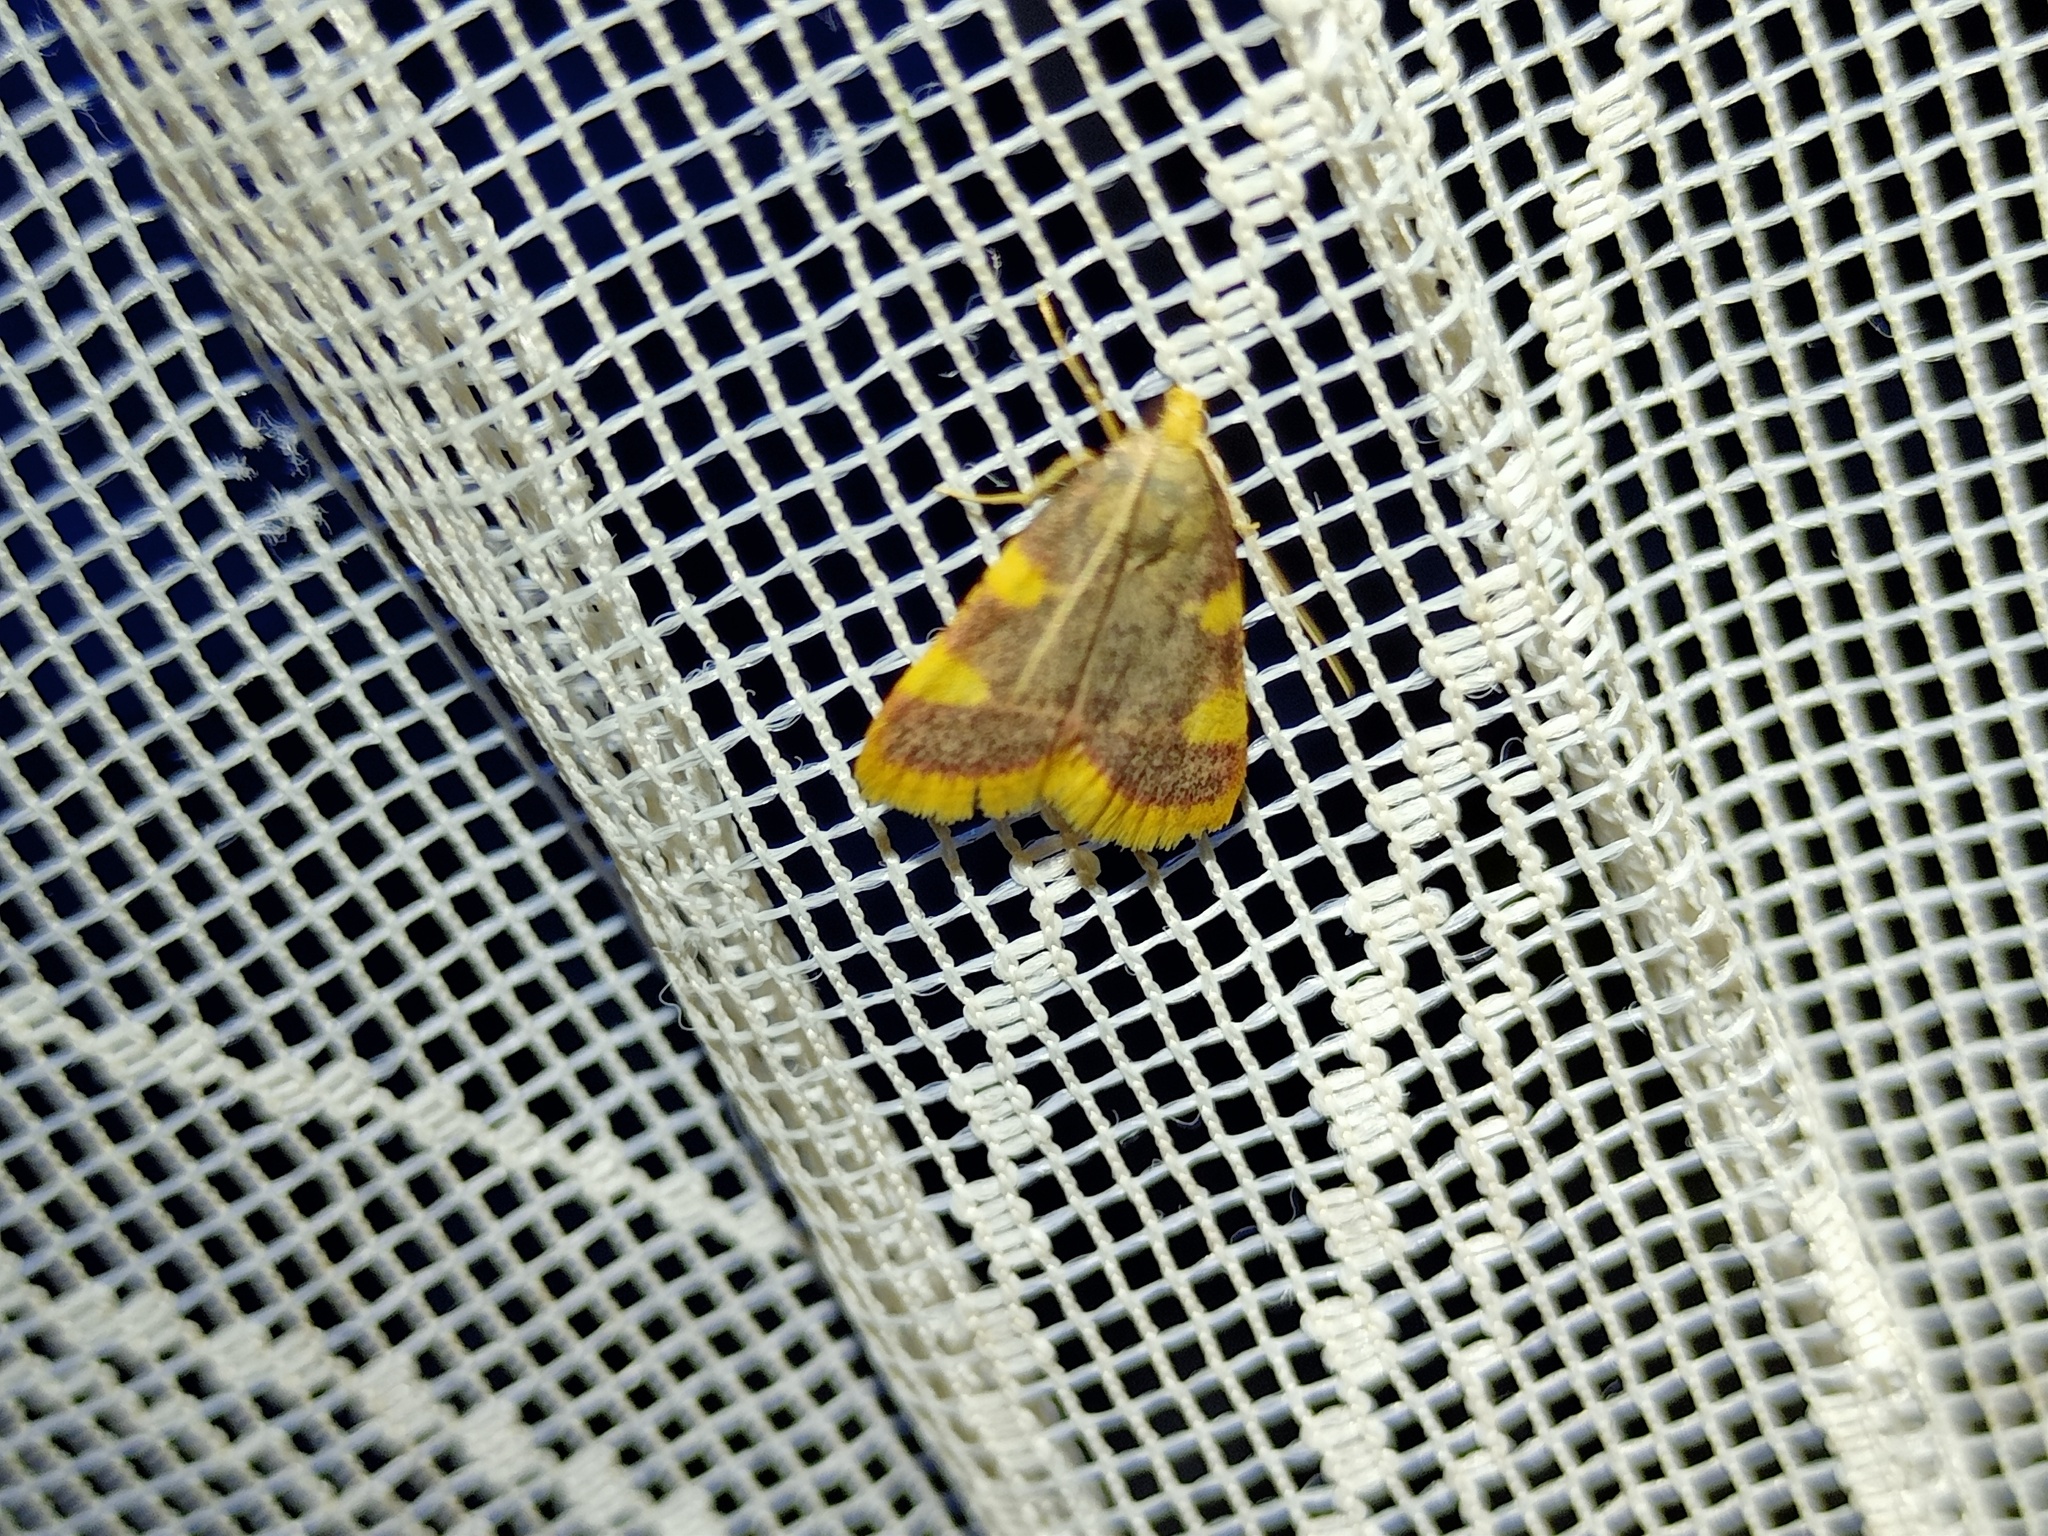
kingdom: Animalia
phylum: Arthropoda
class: Insecta
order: Lepidoptera
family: Pyralidae
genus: Hypsopygia
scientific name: Hypsopygia costalis
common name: Gold triangle
